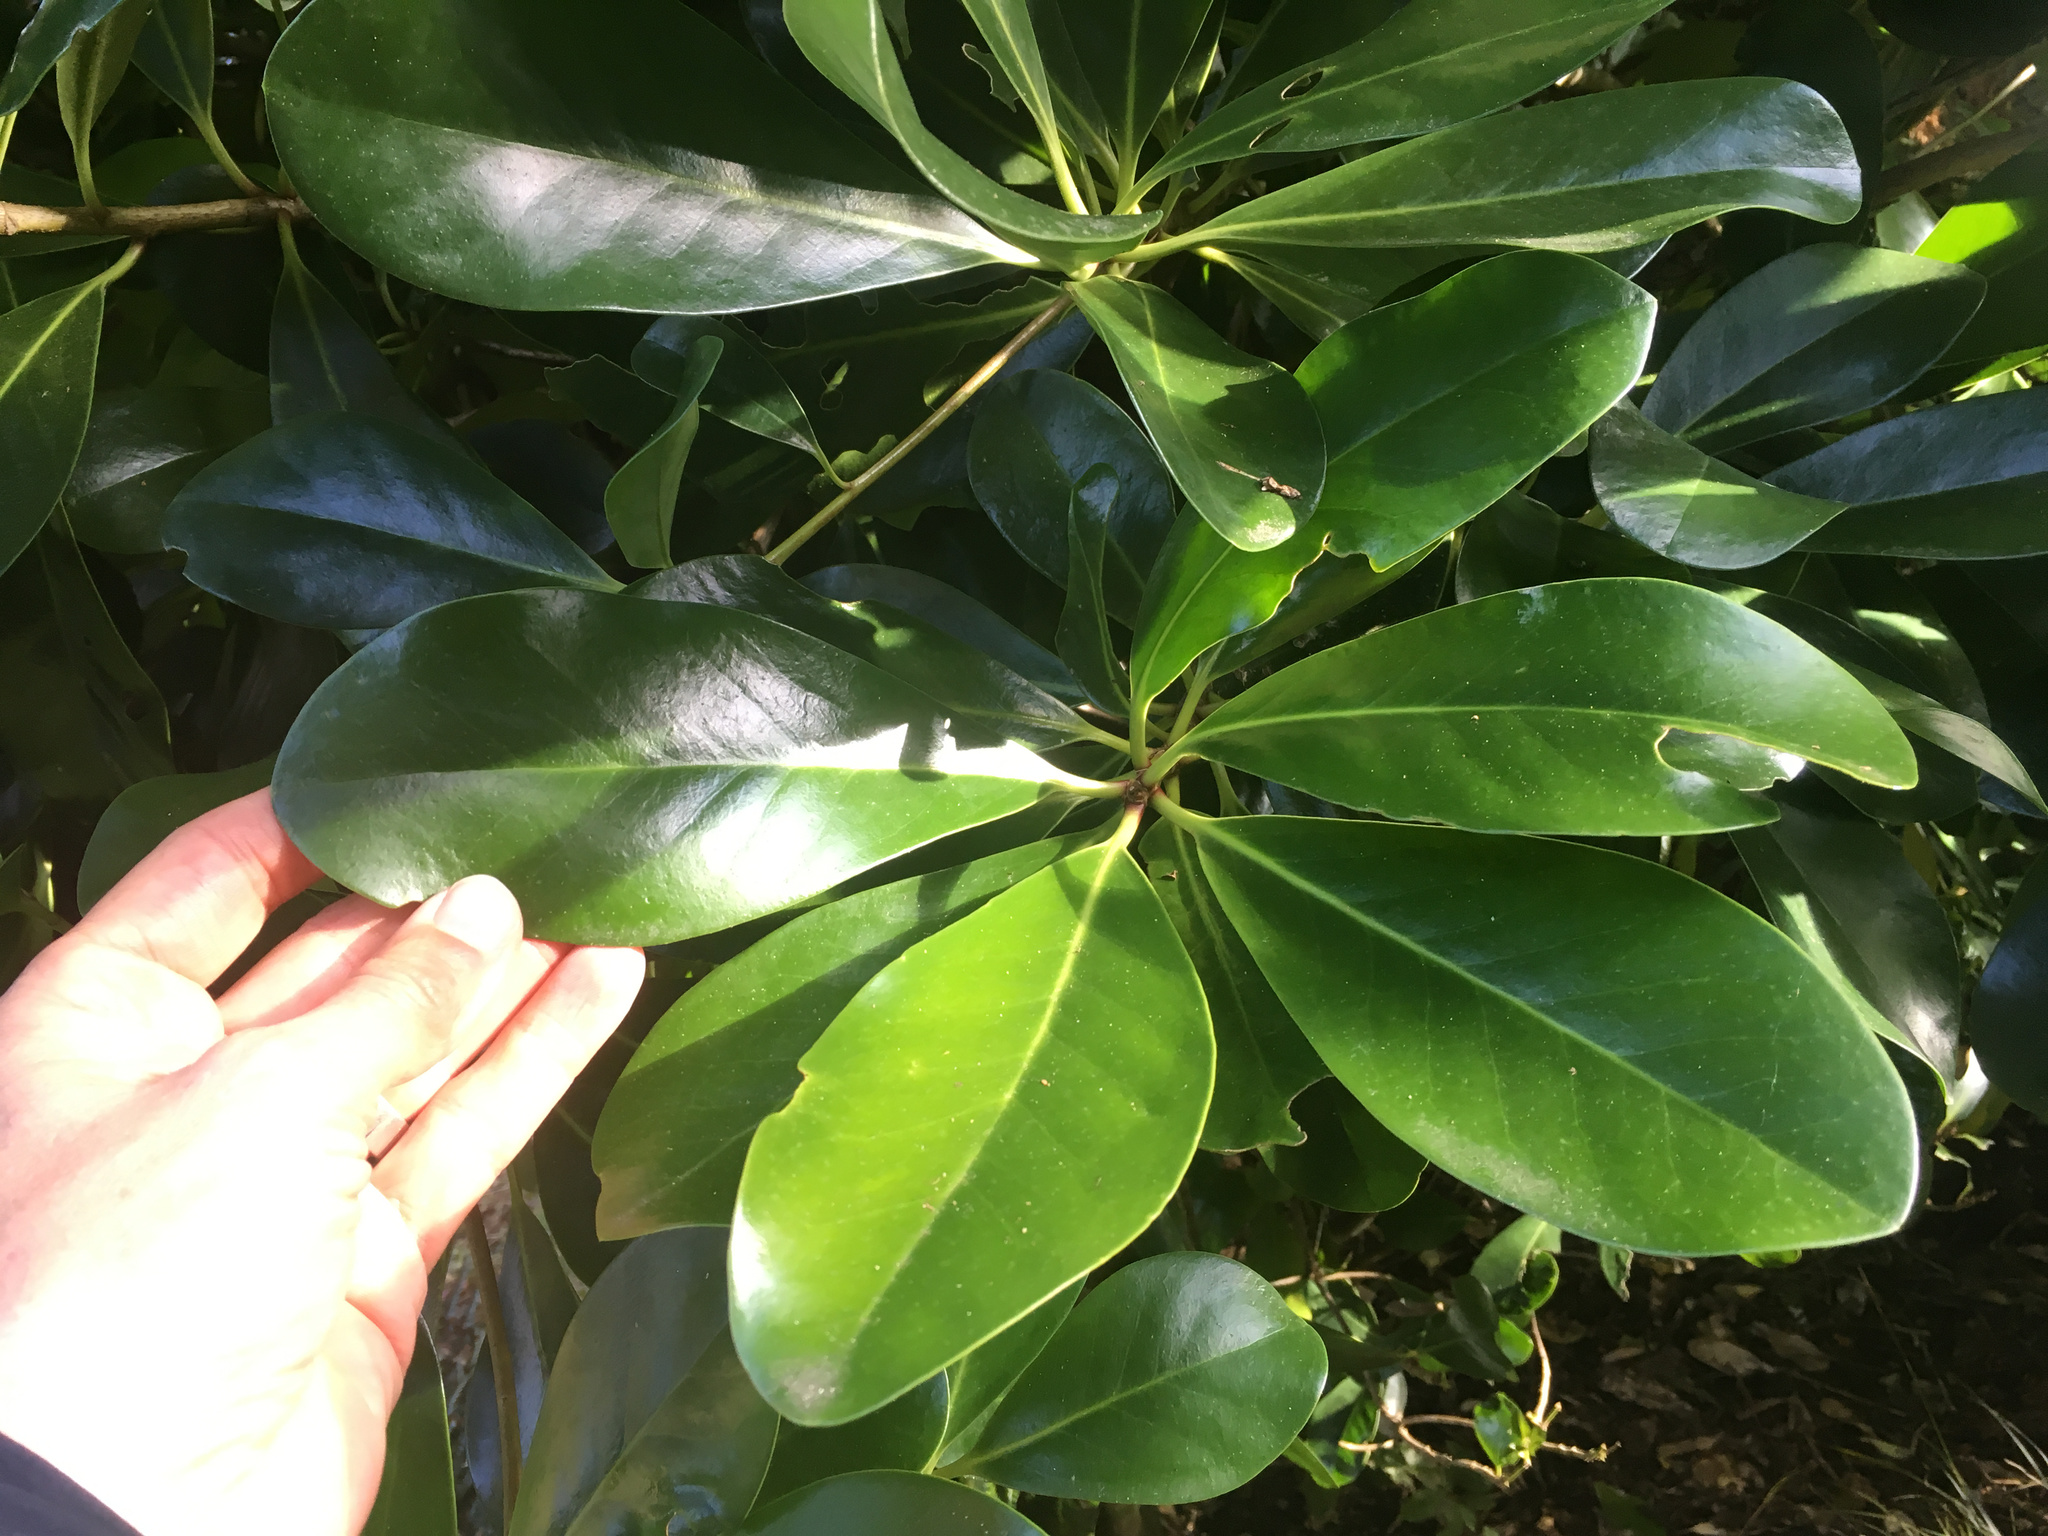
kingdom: Plantae
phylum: Tracheophyta
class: Magnoliopsida
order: Cucurbitales
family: Corynocarpaceae
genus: Corynocarpus
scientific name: Corynocarpus laevigatus
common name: New zealand laurel
